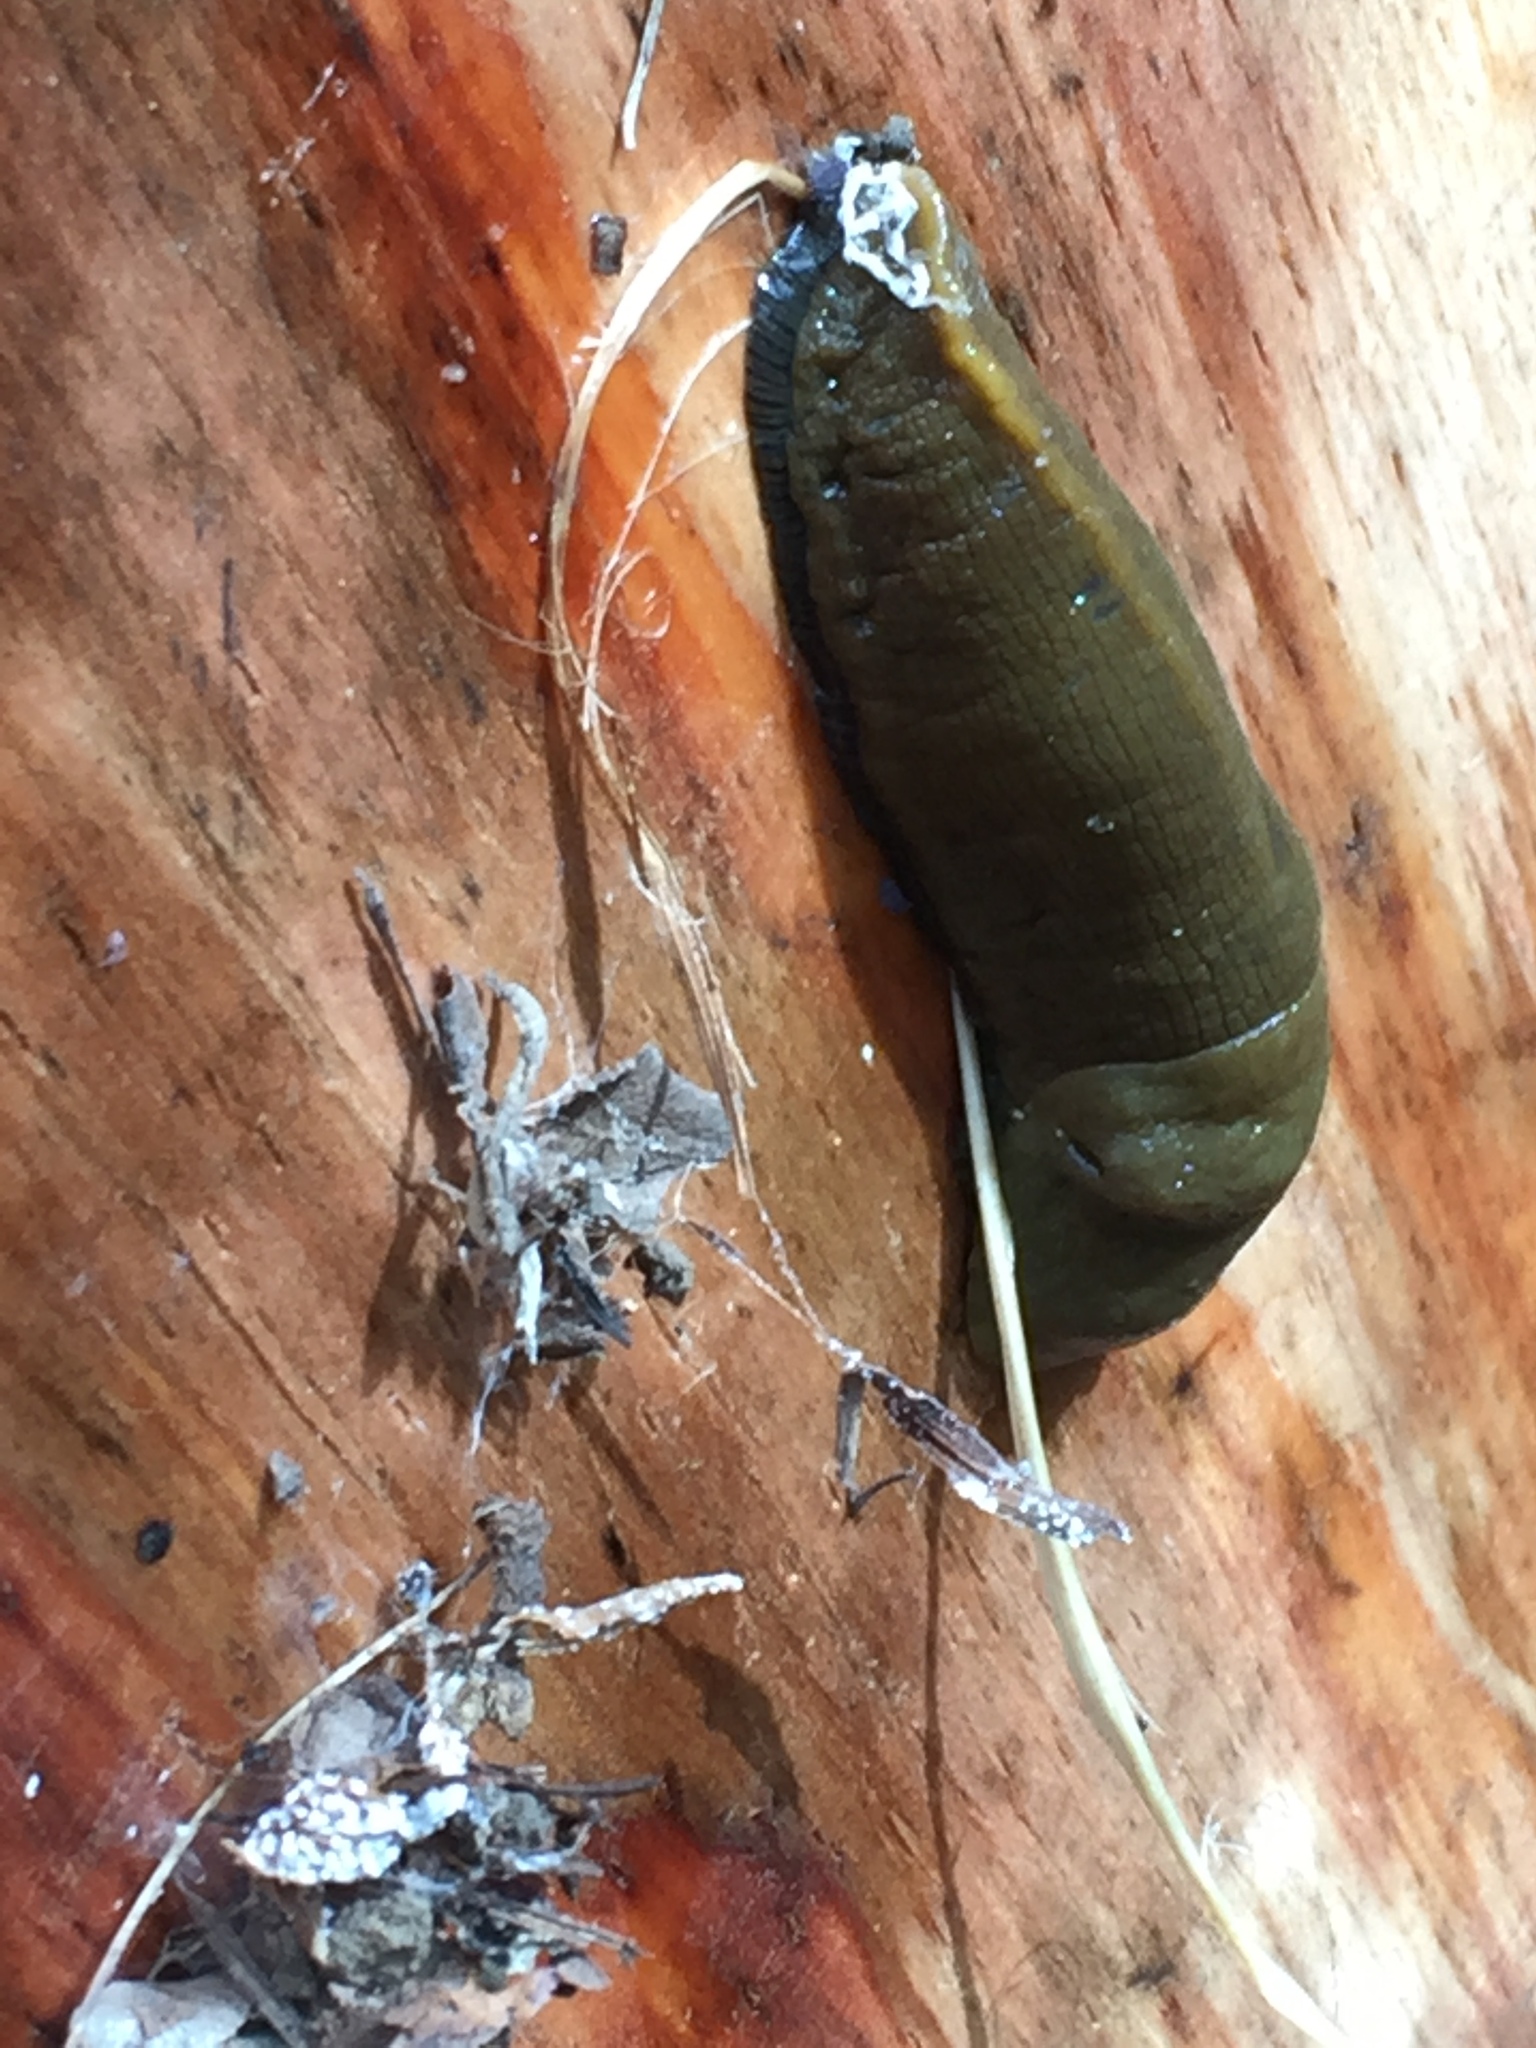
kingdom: Animalia
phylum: Mollusca
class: Gastropoda
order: Stylommatophora
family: Ariolimacidae
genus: Ariolimax
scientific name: Ariolimax buttoni
